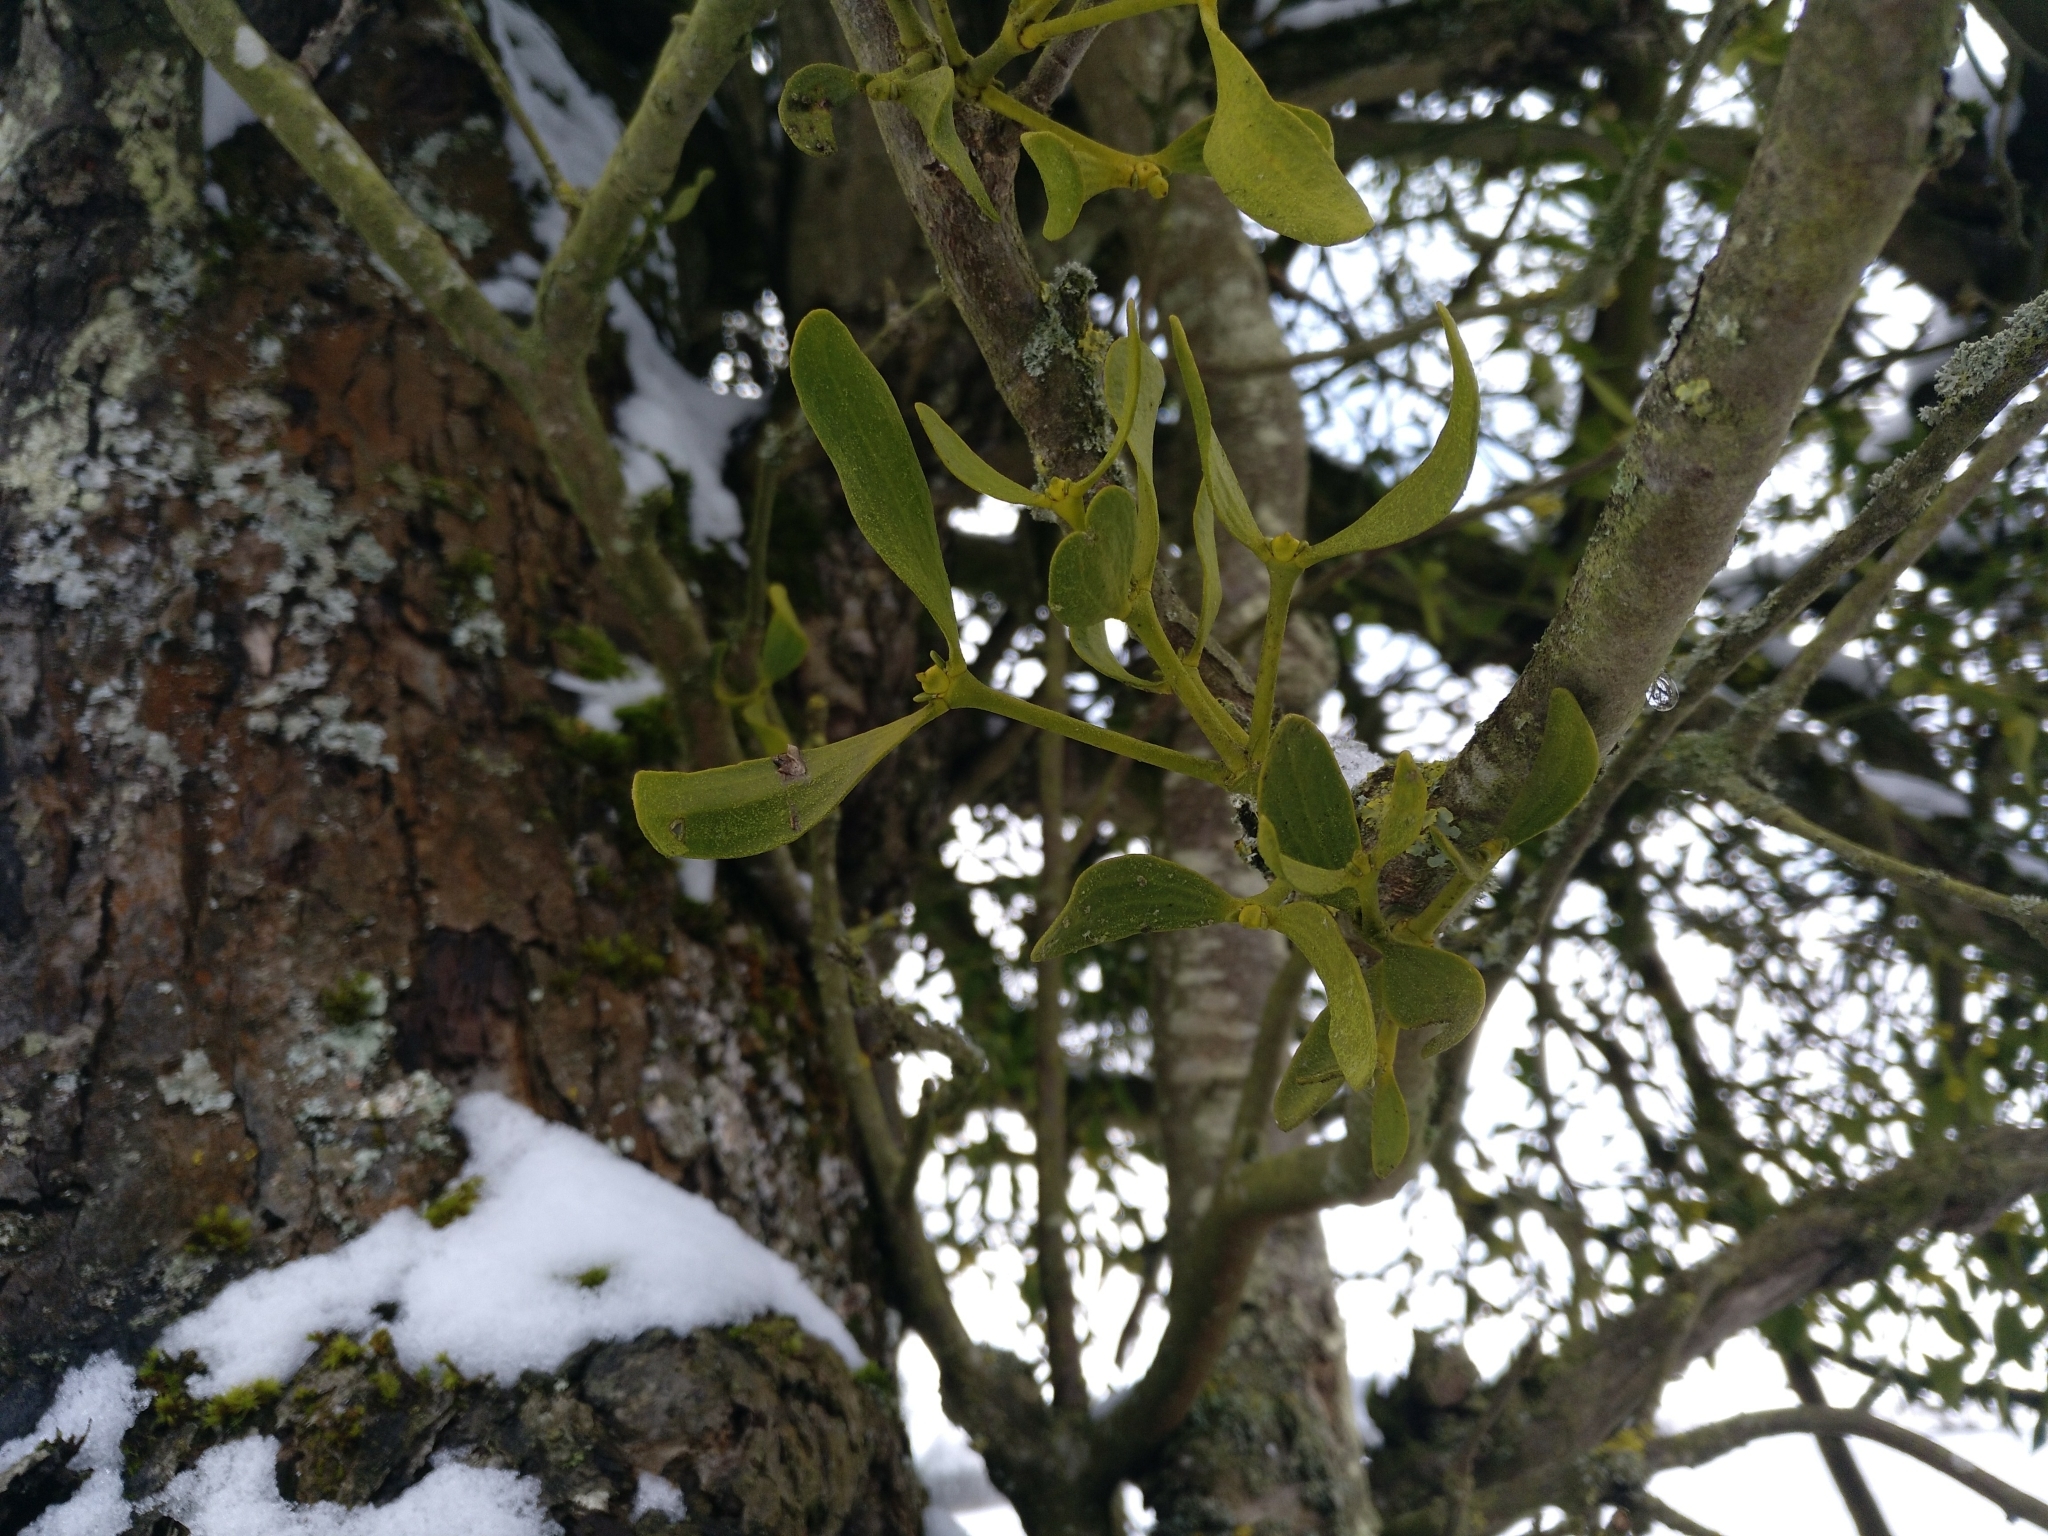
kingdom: Plantae
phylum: Tracheophyta
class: Magnoliopsida
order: Santalales
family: Viscaceae
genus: Viscum
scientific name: Viscum album
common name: Mistletoe
